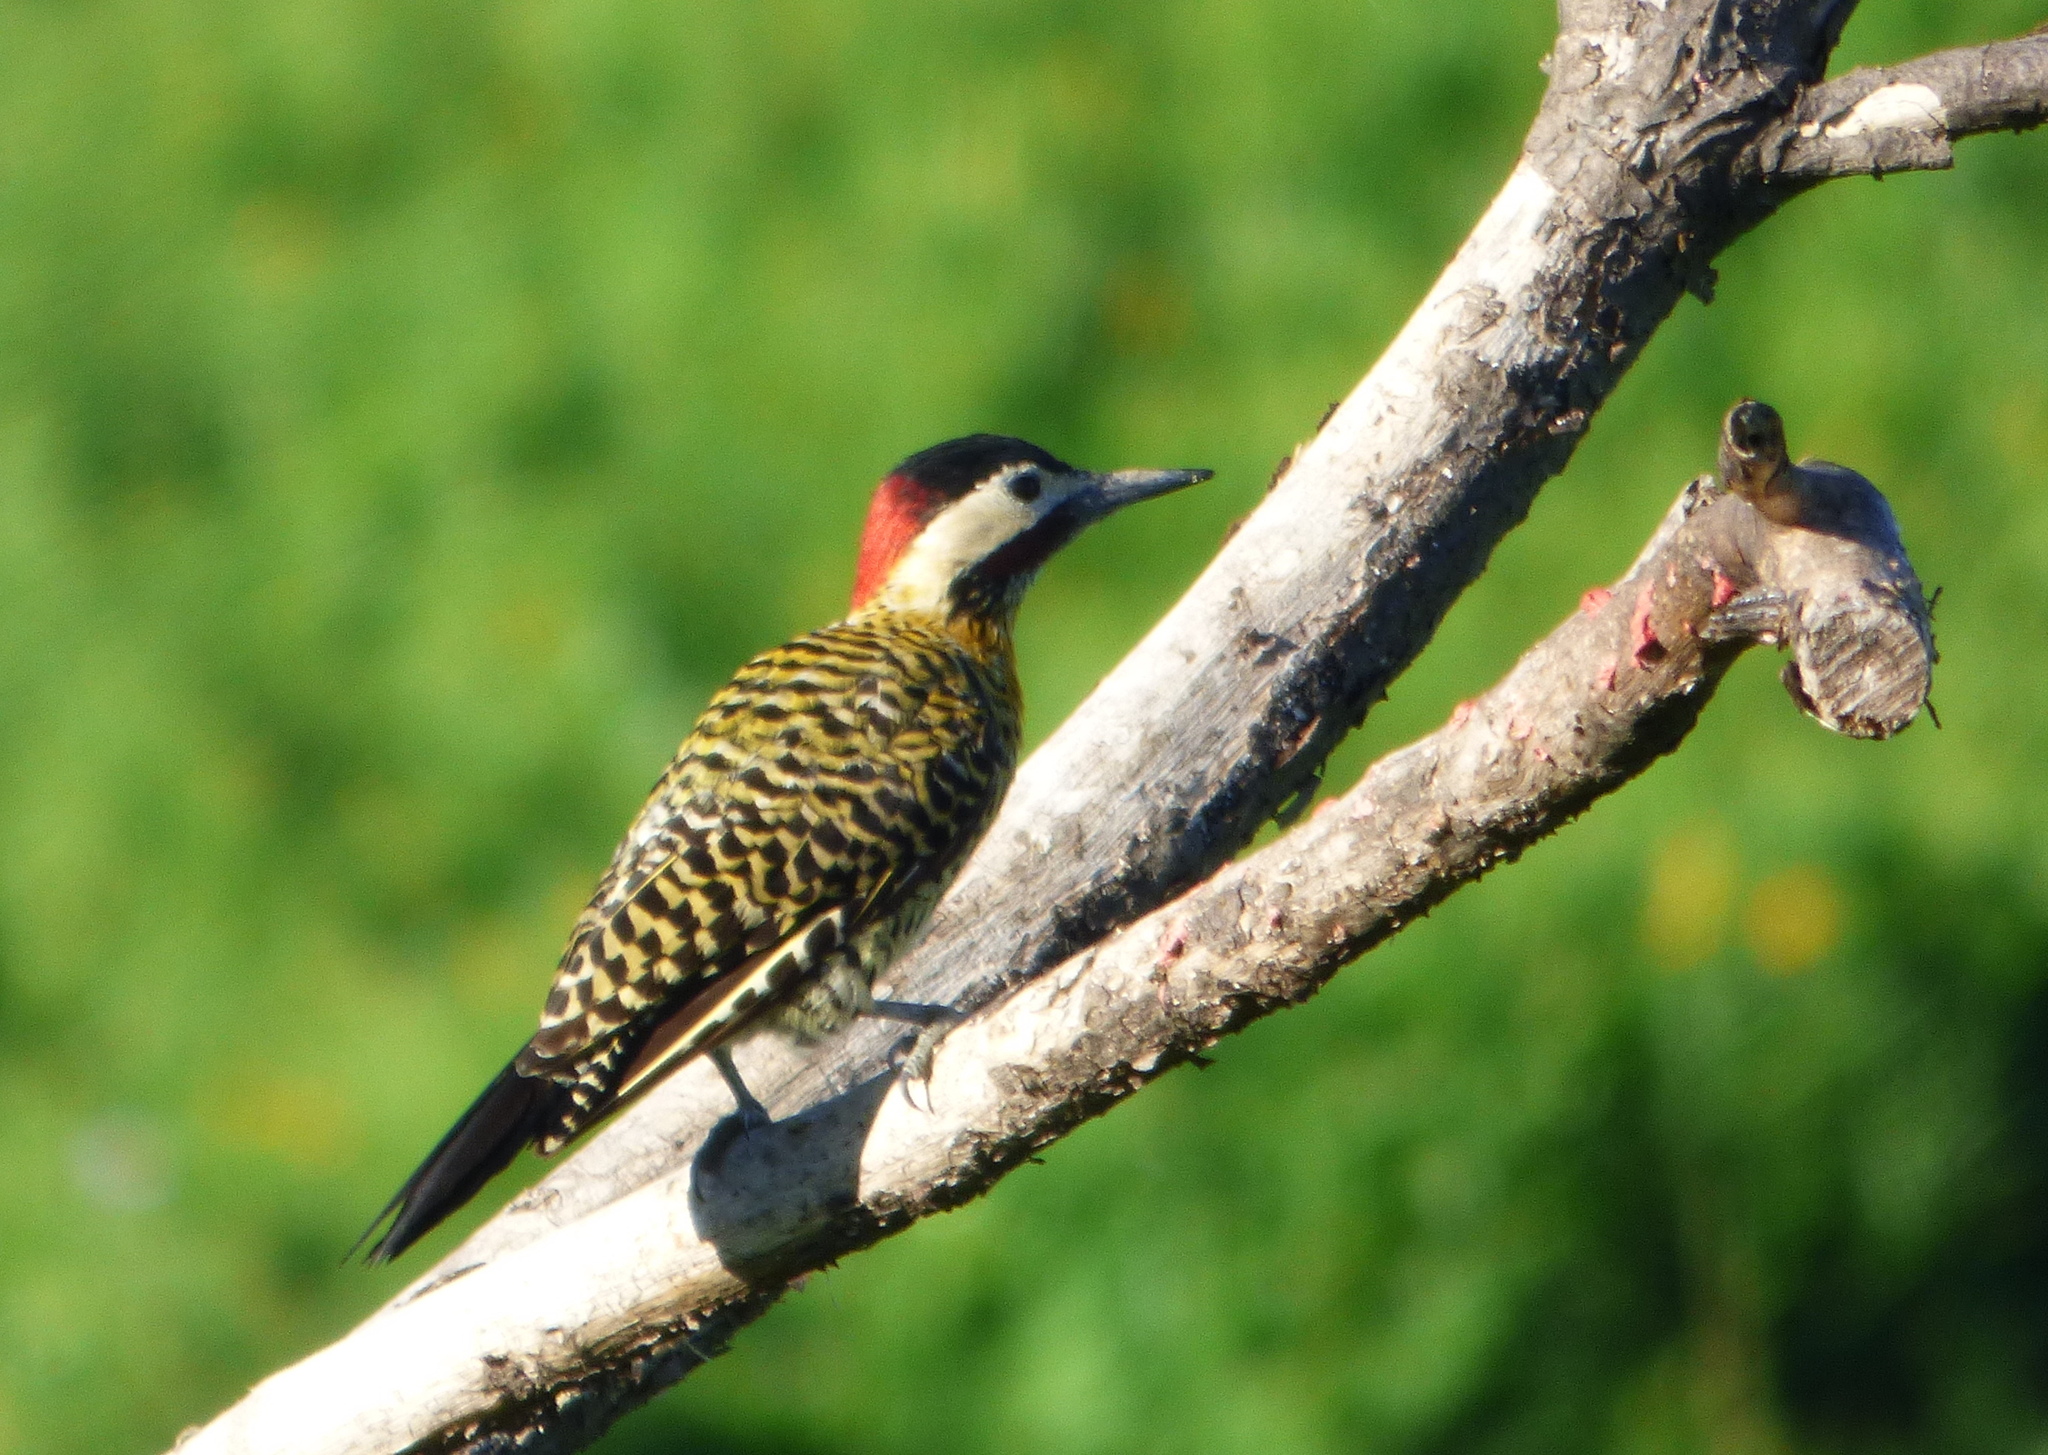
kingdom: Animalia
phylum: Chordata
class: Aves
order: Piciformes
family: Picidae
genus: Colaptes
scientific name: Colaptes melanochloros
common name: Green-barred woodpecker
